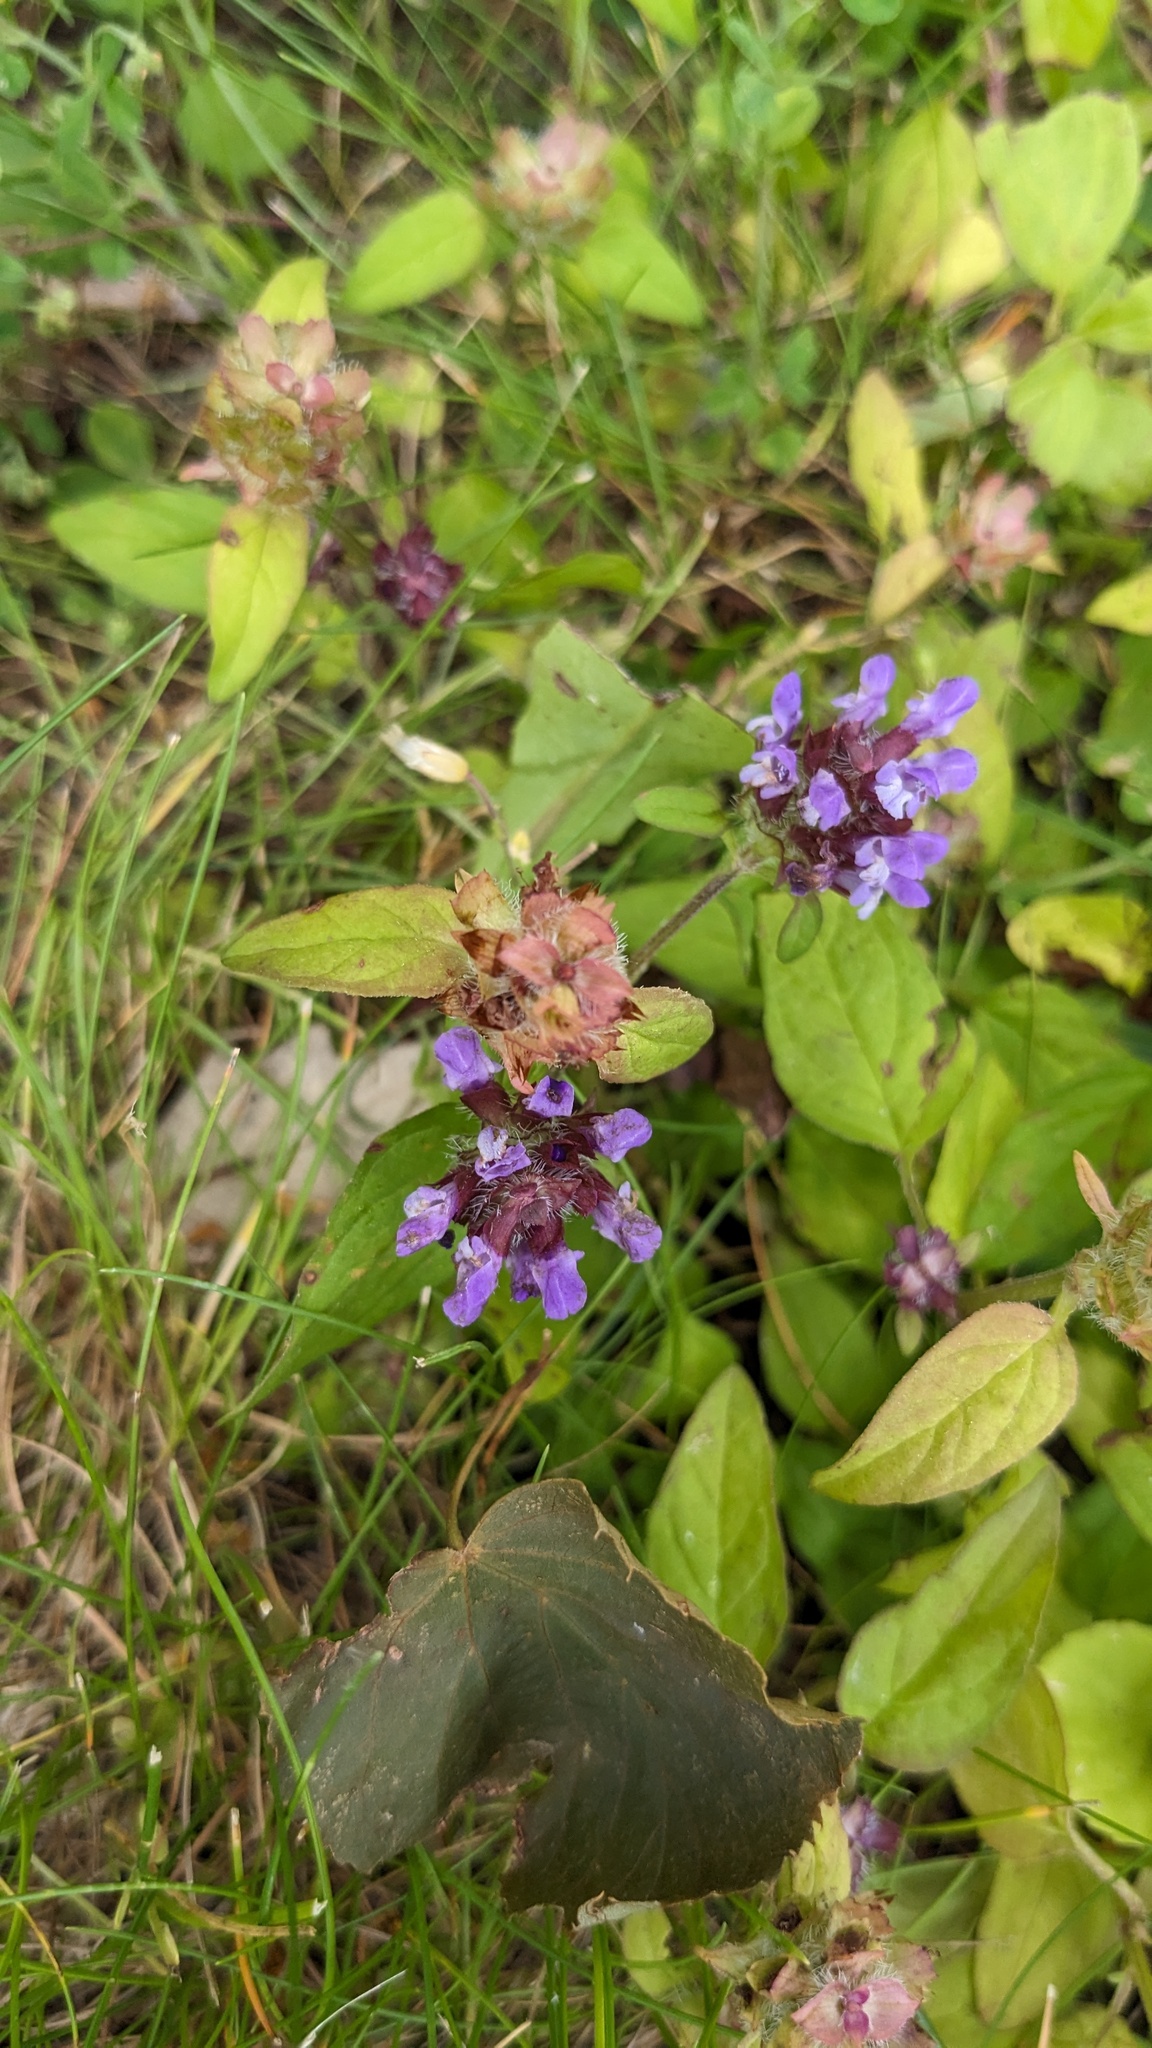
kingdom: Plantae
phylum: Tracheophyta
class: Magnoliopsida
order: Lamiales
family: Lamiaceae
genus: Prunella
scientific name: Prunella vulgaris
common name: Heal-all
